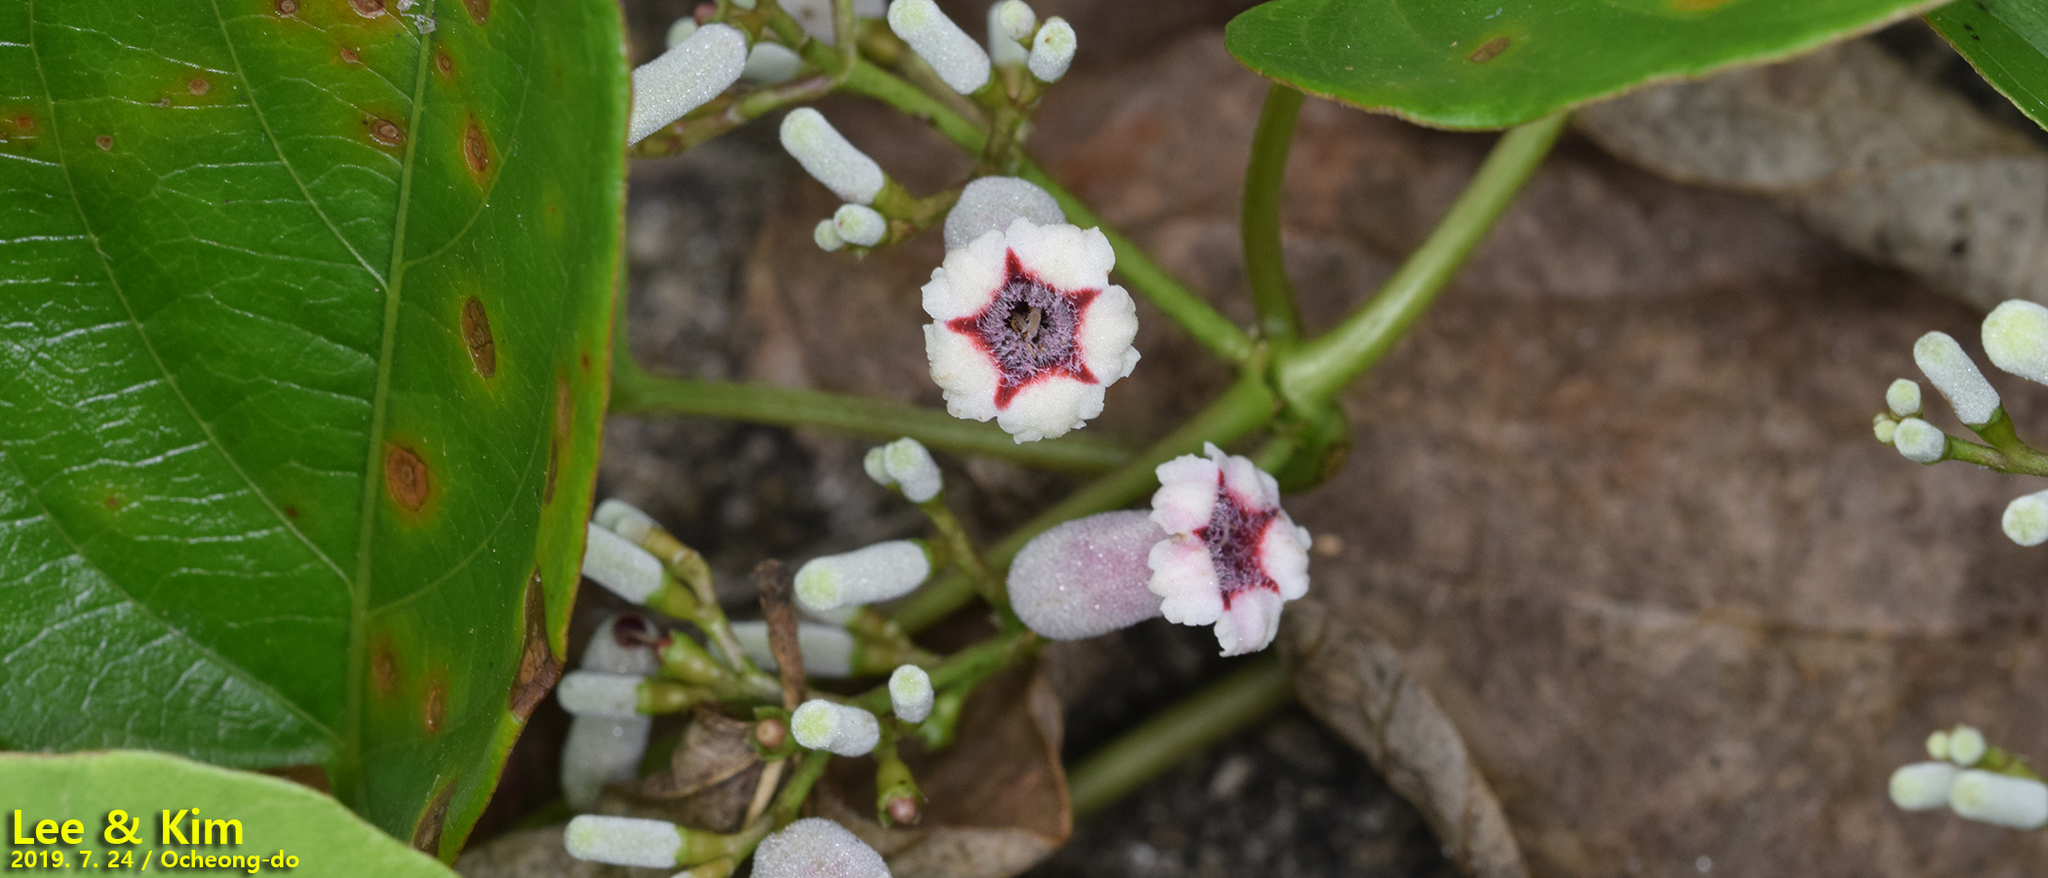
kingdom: Plantae
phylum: Tracheophyta
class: Magnoliopsida
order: Gentianales
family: Rubiaceae
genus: Paederia
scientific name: Paederia foetida
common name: Stinkvine
